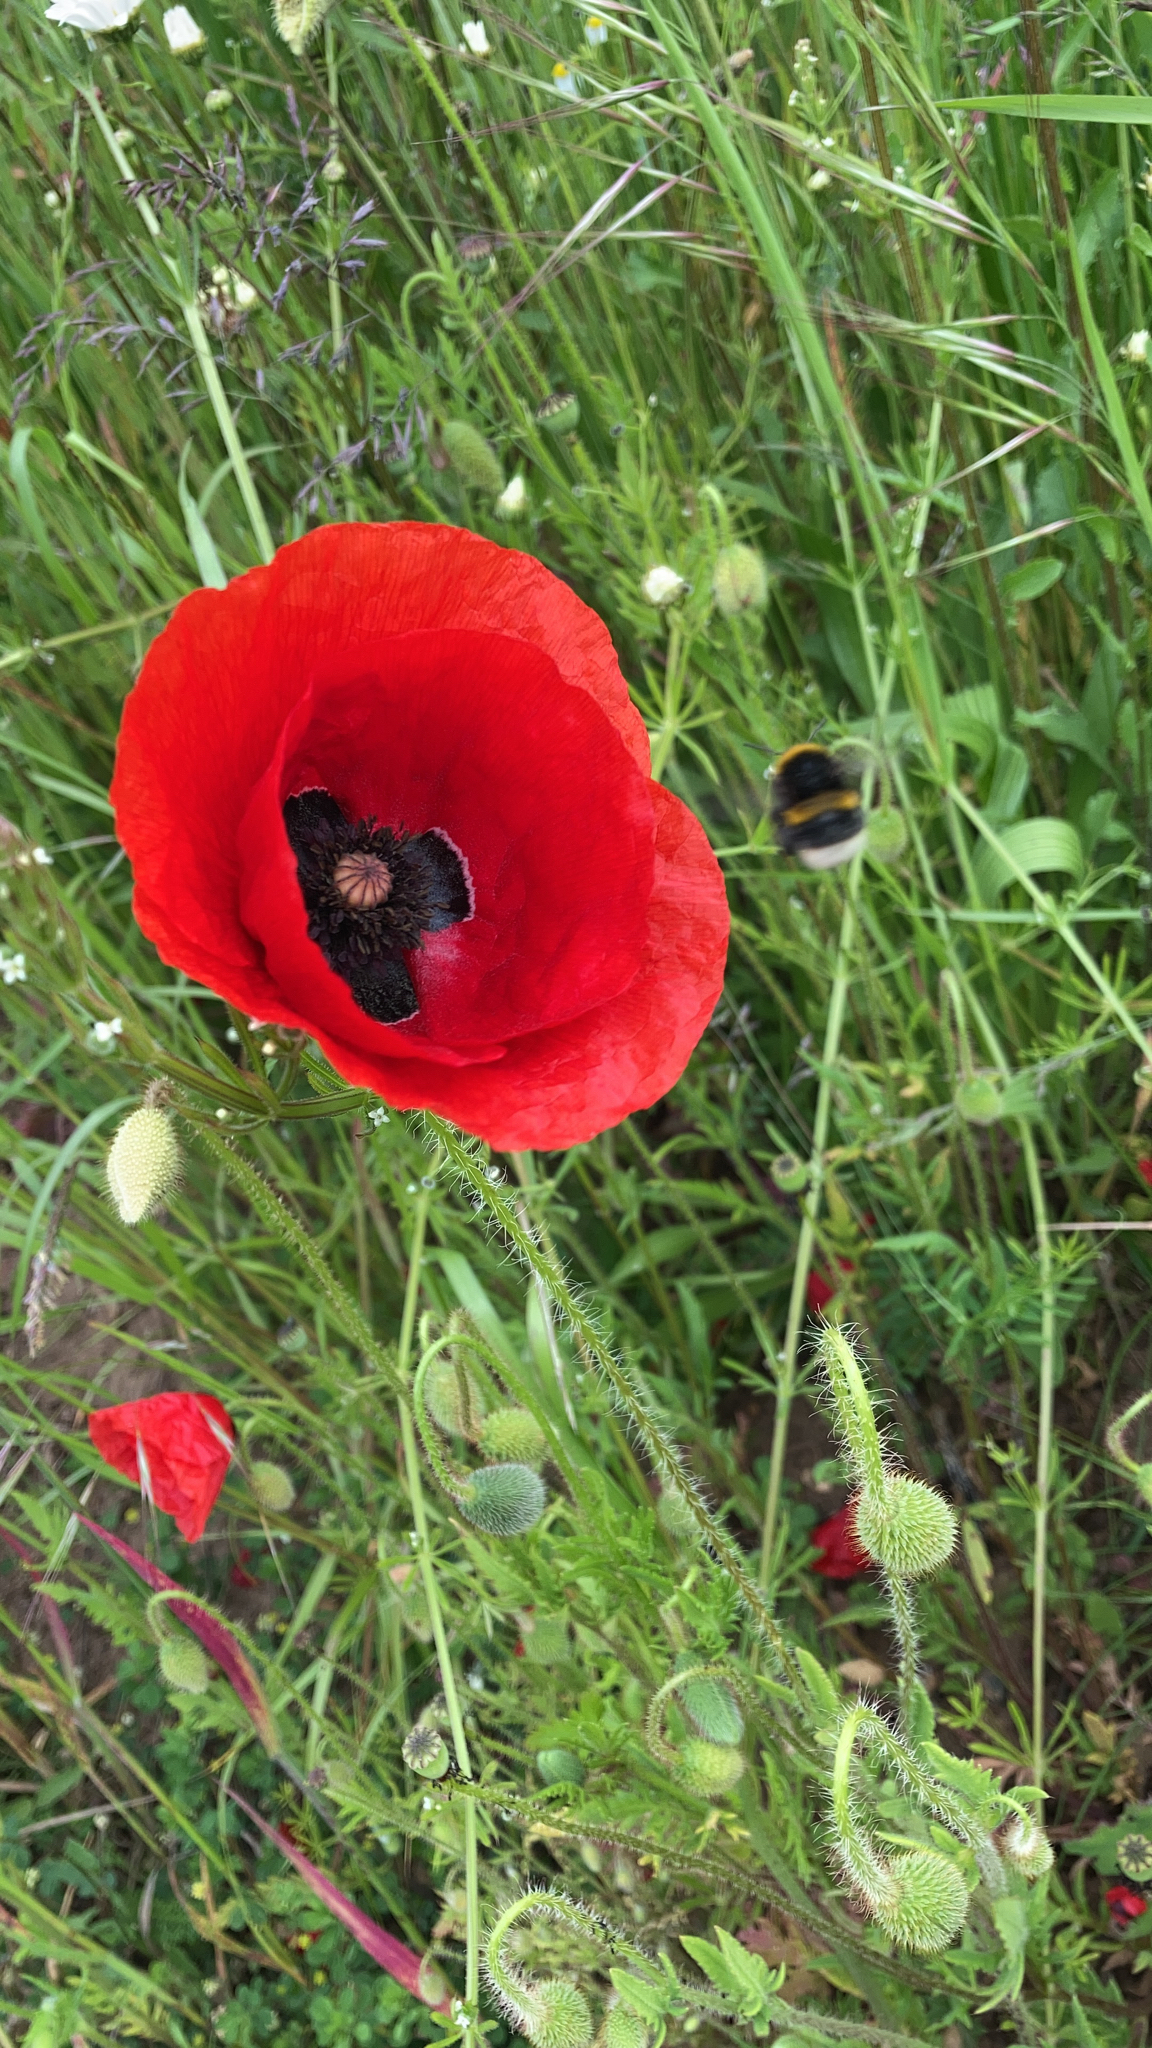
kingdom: Plantae
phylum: Tracheophyta
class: Magnoliopsida
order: Ranunculales
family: Papaveraceae
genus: Papaver
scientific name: Papaver rhoeas
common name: Corn poppy
